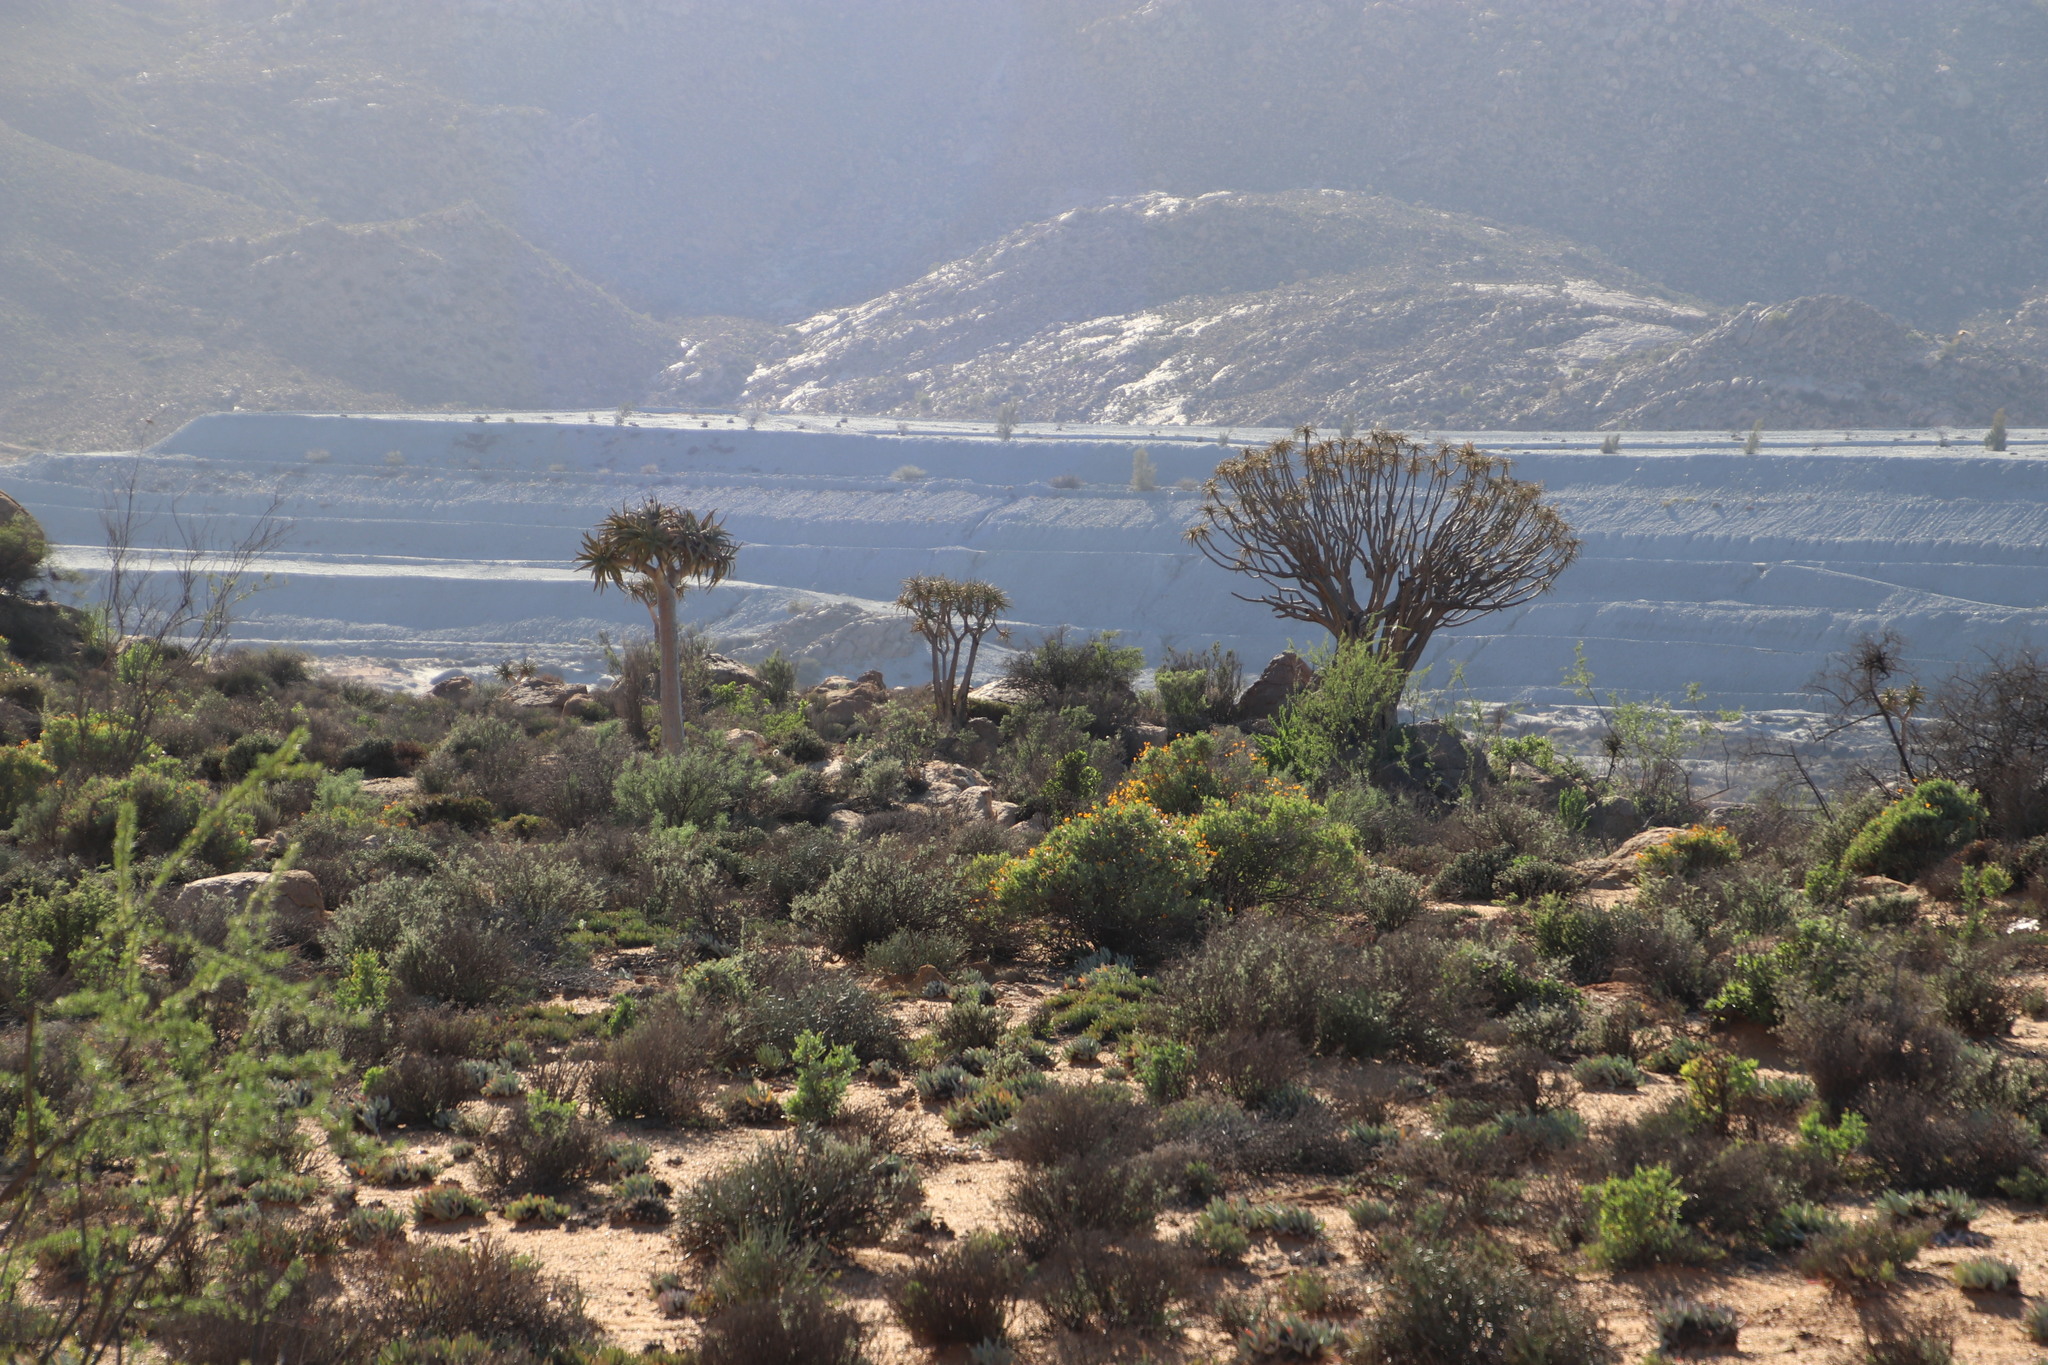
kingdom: Plantae
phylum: Tracheophyta
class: Liliopsida
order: Asparagales
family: Asphodelaceae
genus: Aloidendron
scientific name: Aloidendron dichotomum
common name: Quiver tree
